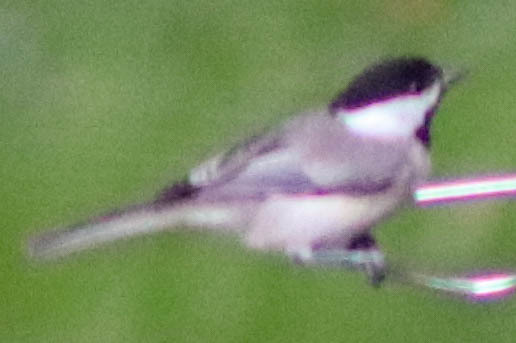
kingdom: Animalia
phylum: Chordata
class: Aves
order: Passeriformes
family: Paridae
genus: Poecile
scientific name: Poecile carolinensis
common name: Carolina chickadee
